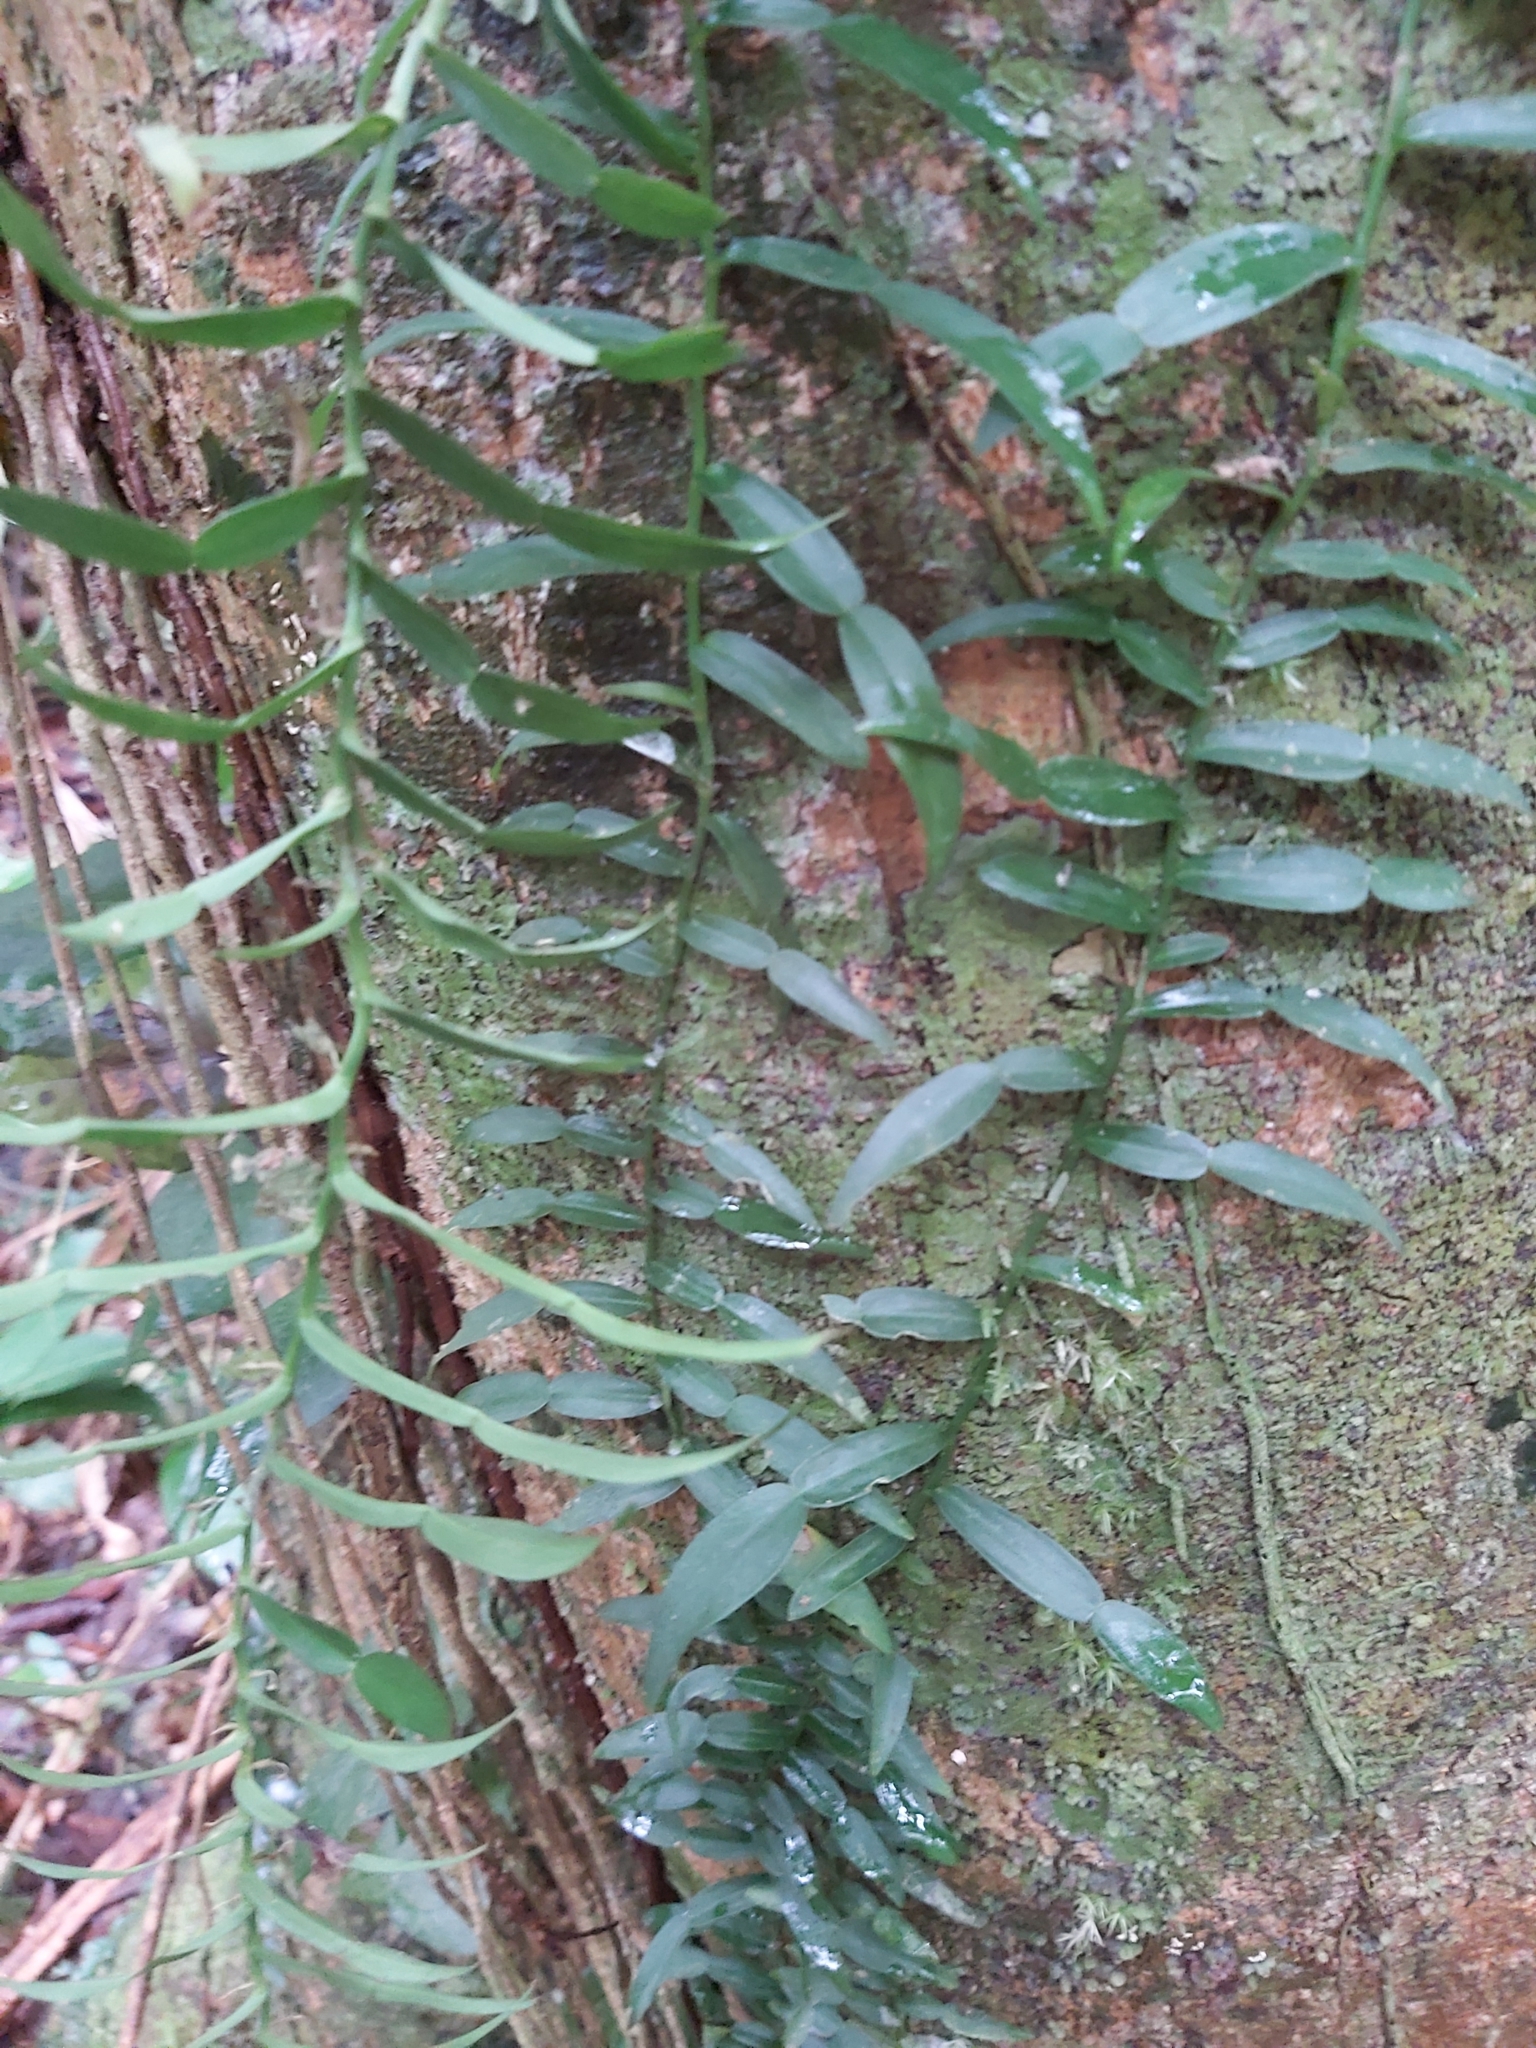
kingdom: Plantae
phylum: Tracheophyta
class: Liliopsida
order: Alismatales
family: Araceae
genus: Pothos
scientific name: Pothos longipes
